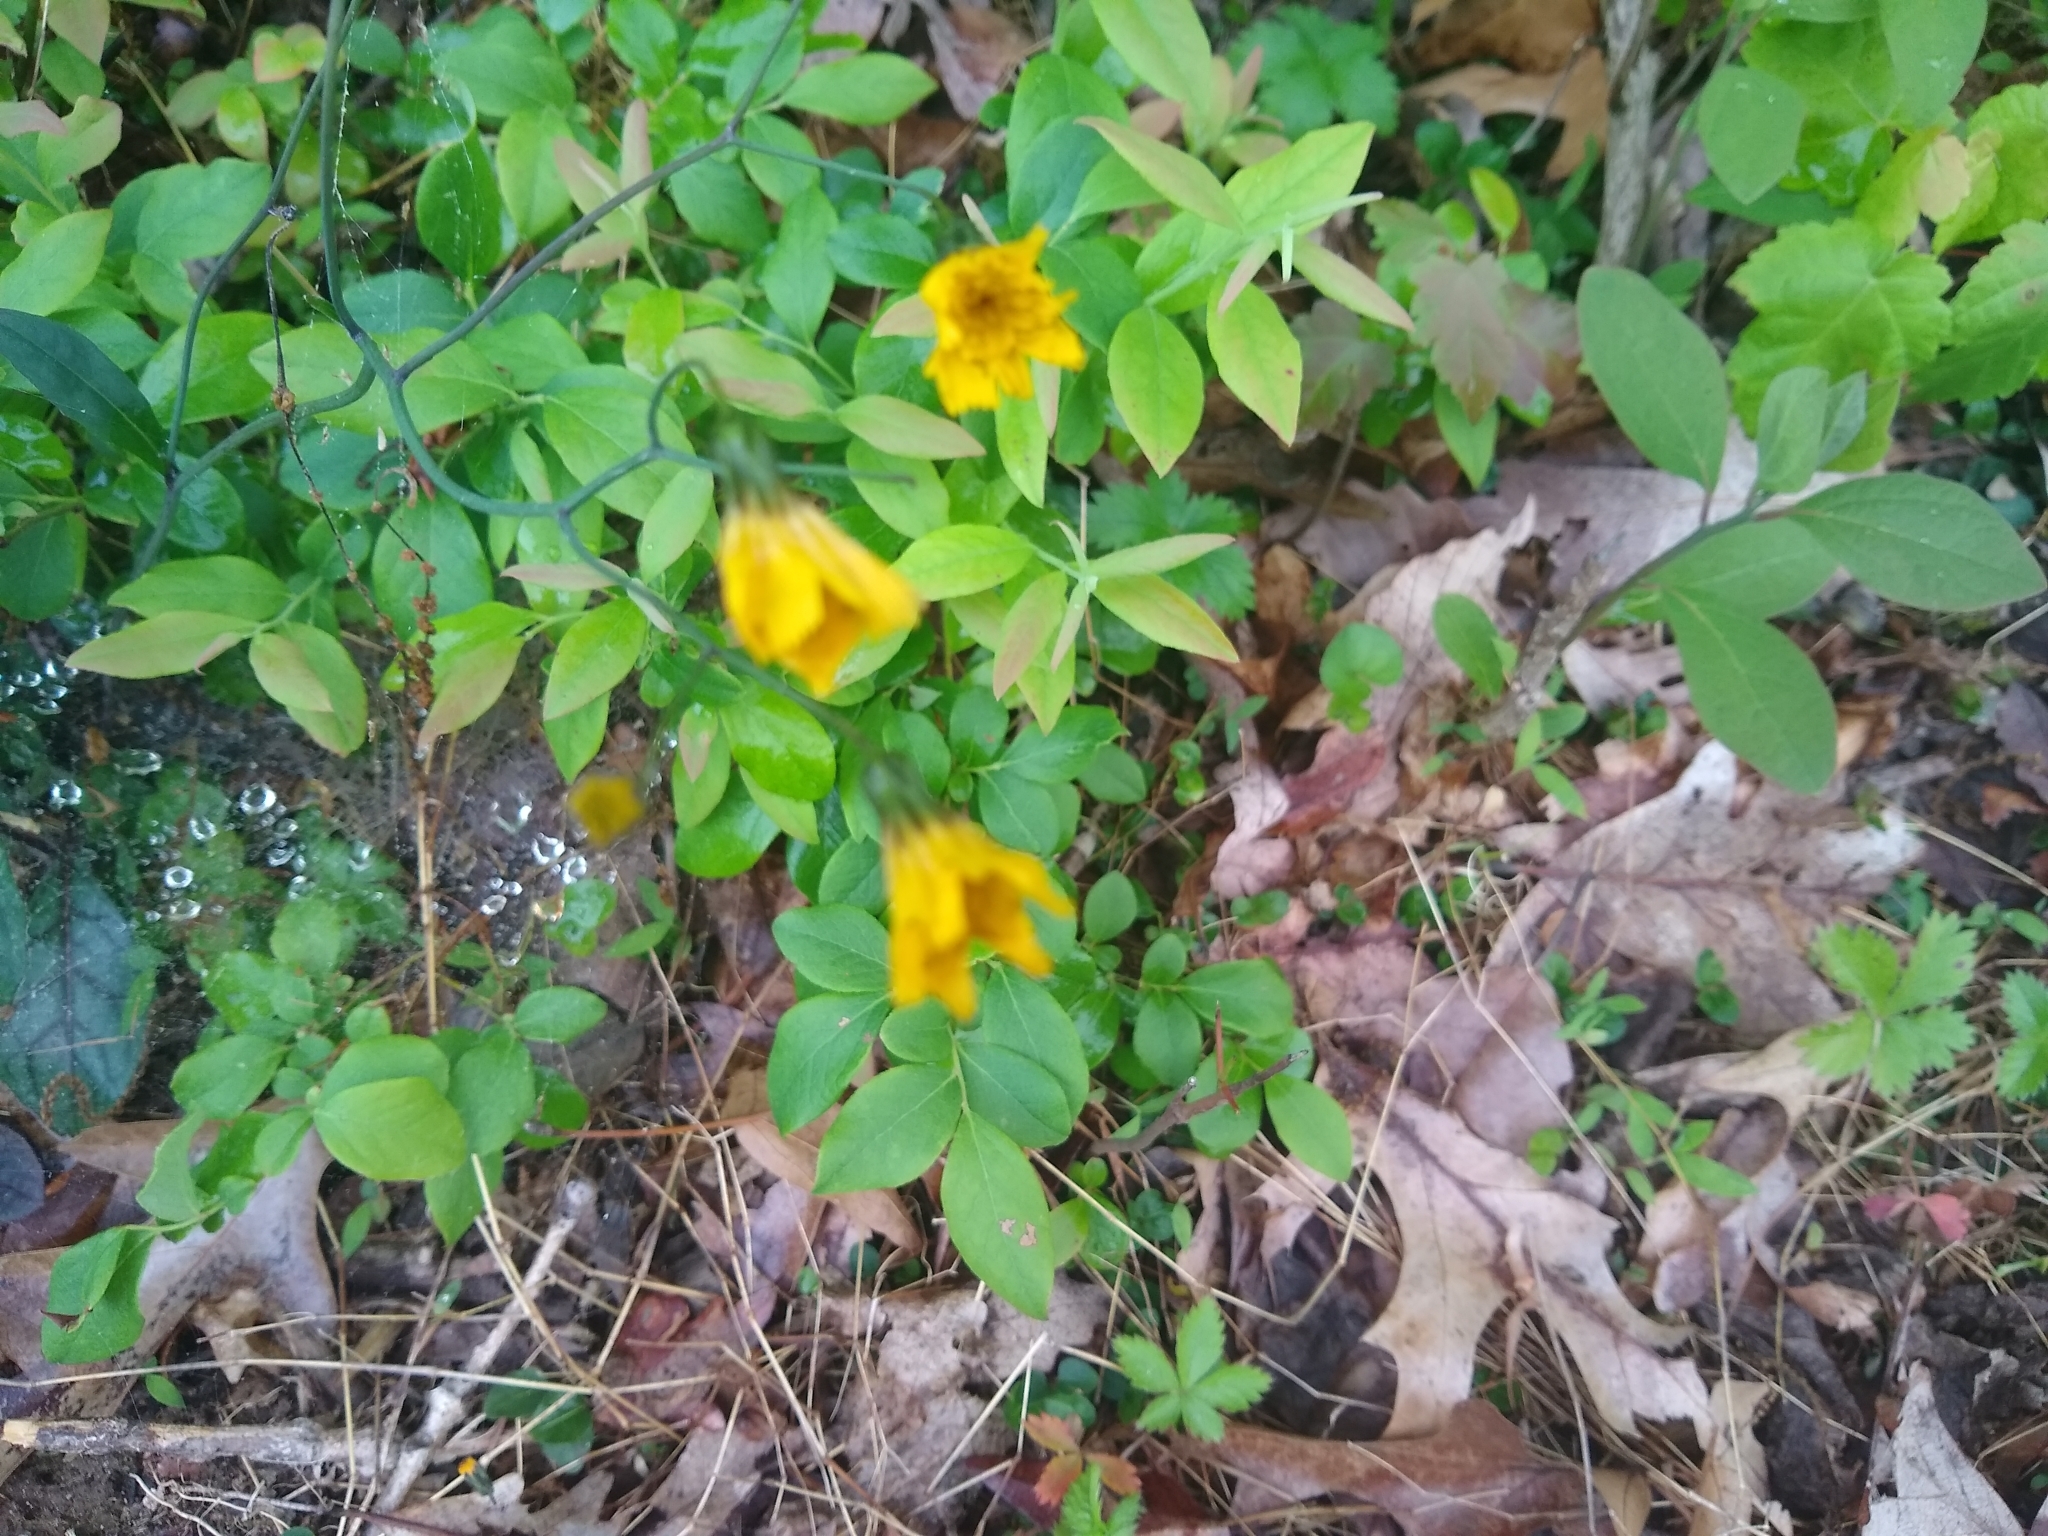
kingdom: Plantae
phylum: Tracheophyta
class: Magnoliopsida
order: Asterales
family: Asteraceae
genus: Hieracium
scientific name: Hieracium venosum
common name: Rattlesnake hawkweed
